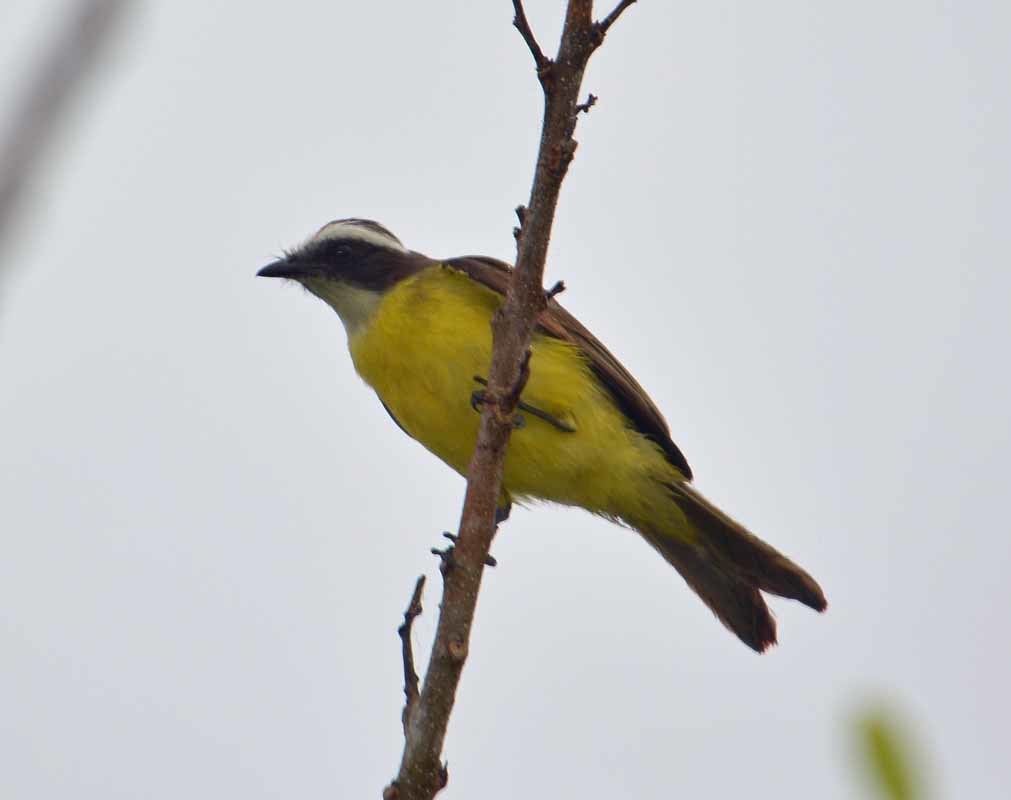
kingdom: Animalia
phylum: Chordata
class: Aves
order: Passeriformes
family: Tyrannidae
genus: Pitangus
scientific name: Pitangus sulphuratus
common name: Great kiskadee
